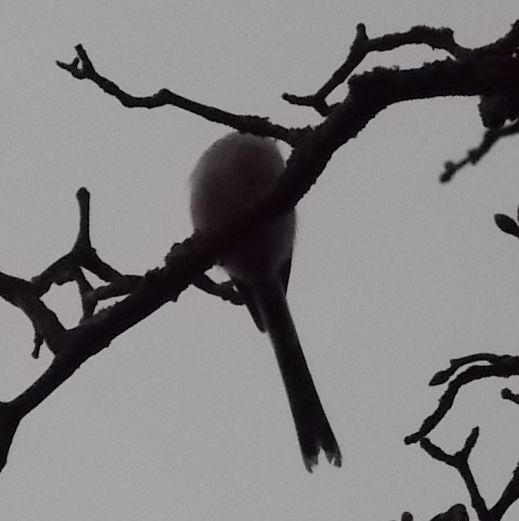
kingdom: Animalia
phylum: Chordata
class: Aves
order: Passeriformes
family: Aegithalidae
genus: Aegithalos
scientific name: Aegithalos caudatus
